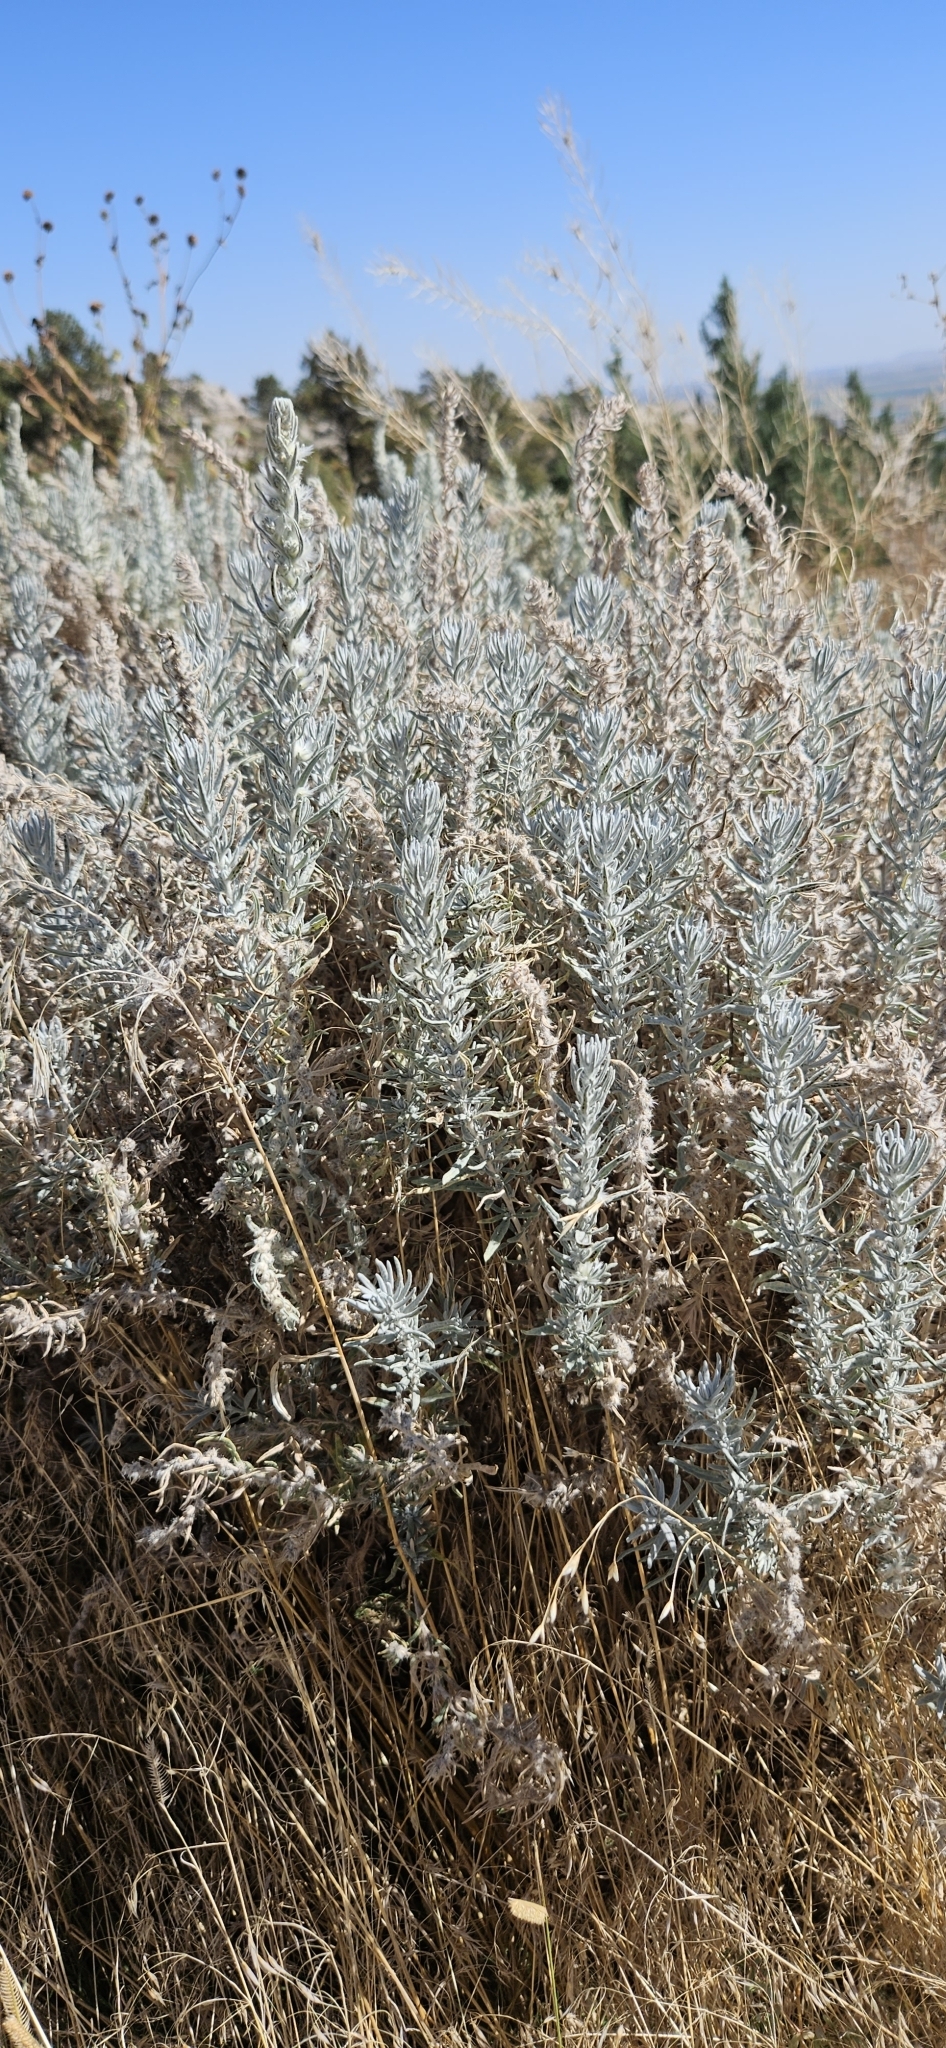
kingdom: Plantae
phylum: Tracheophyta
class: Magnoliopsida
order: Caryophyllales
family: Amaranthaceae
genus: Krascheninnikovia
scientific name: Krascheninnikovia lanata
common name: Winterfat
